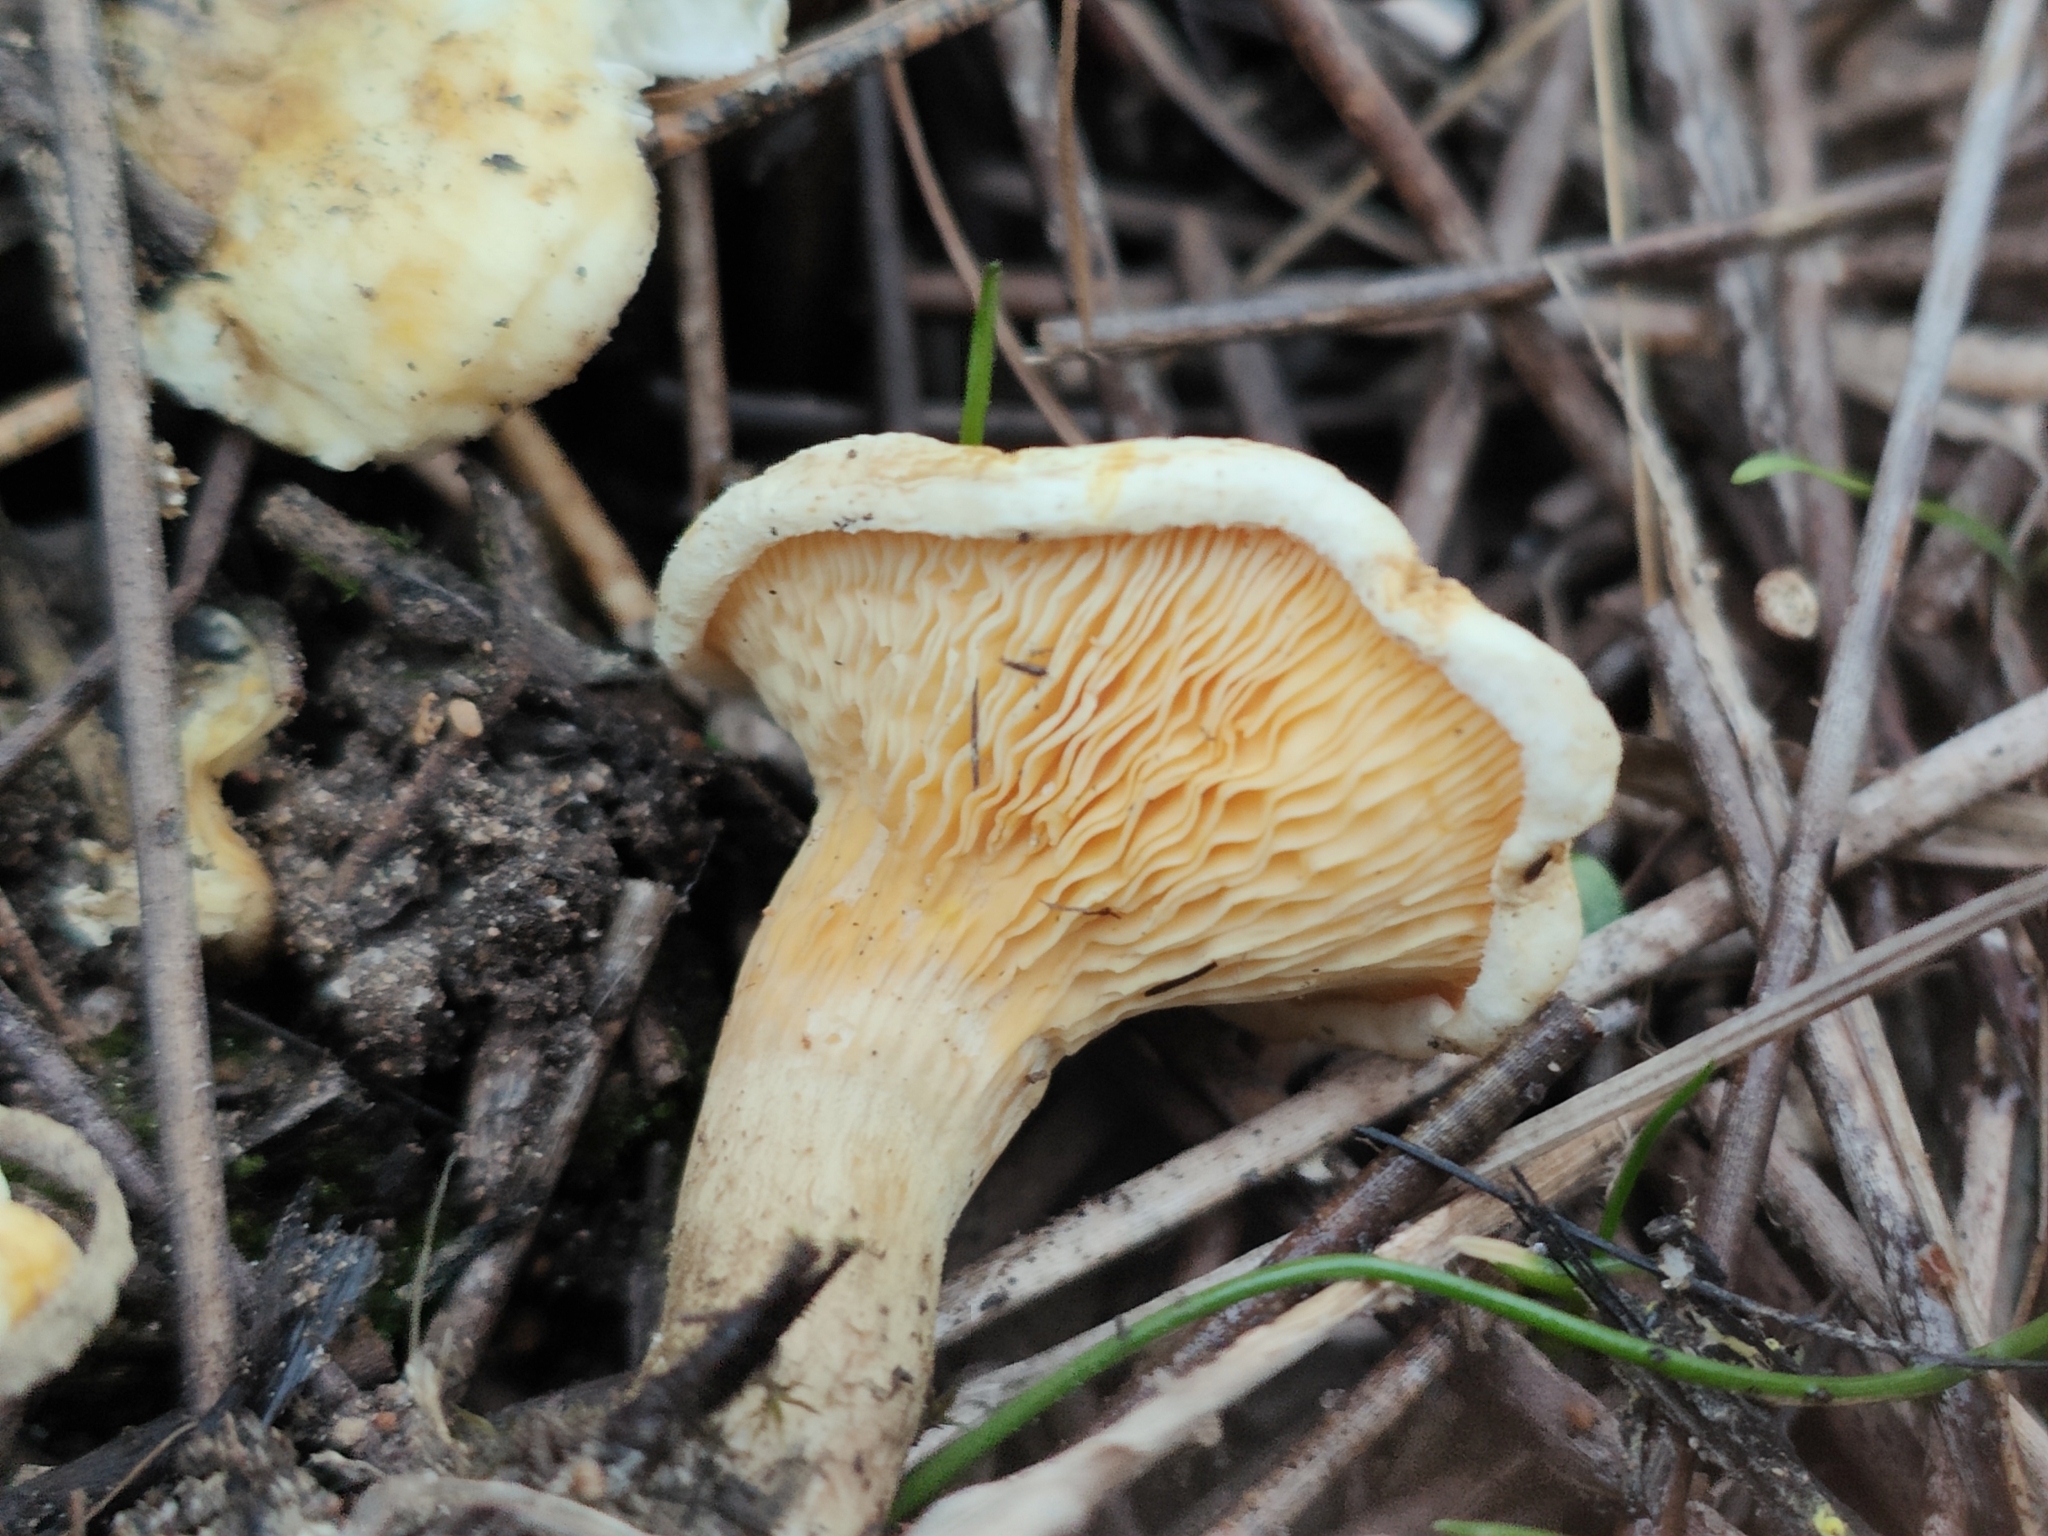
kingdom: Fungi
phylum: Basidiomycota
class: Agaricomycetes
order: Boletales
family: Hygrophoropsidaceae
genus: Hygrophoropsis
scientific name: Hygrophoropsis pallida
